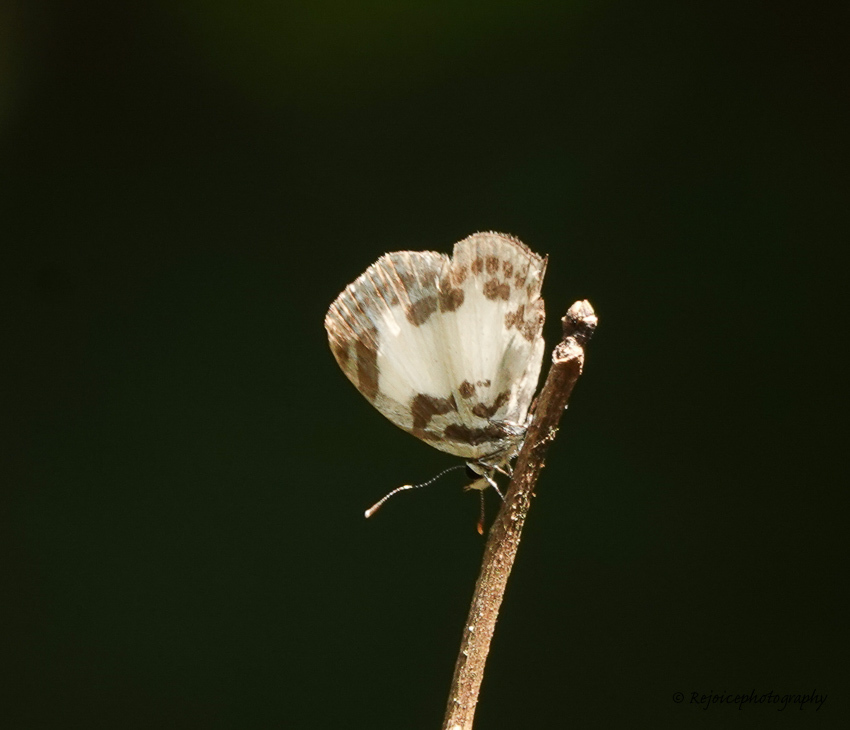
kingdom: Animalia
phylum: Arthropoda
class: Insecta
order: Lepidoptera
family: Lycaenidae
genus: Discolampa
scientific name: Discolampa ethion
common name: Banded blue pierrot
